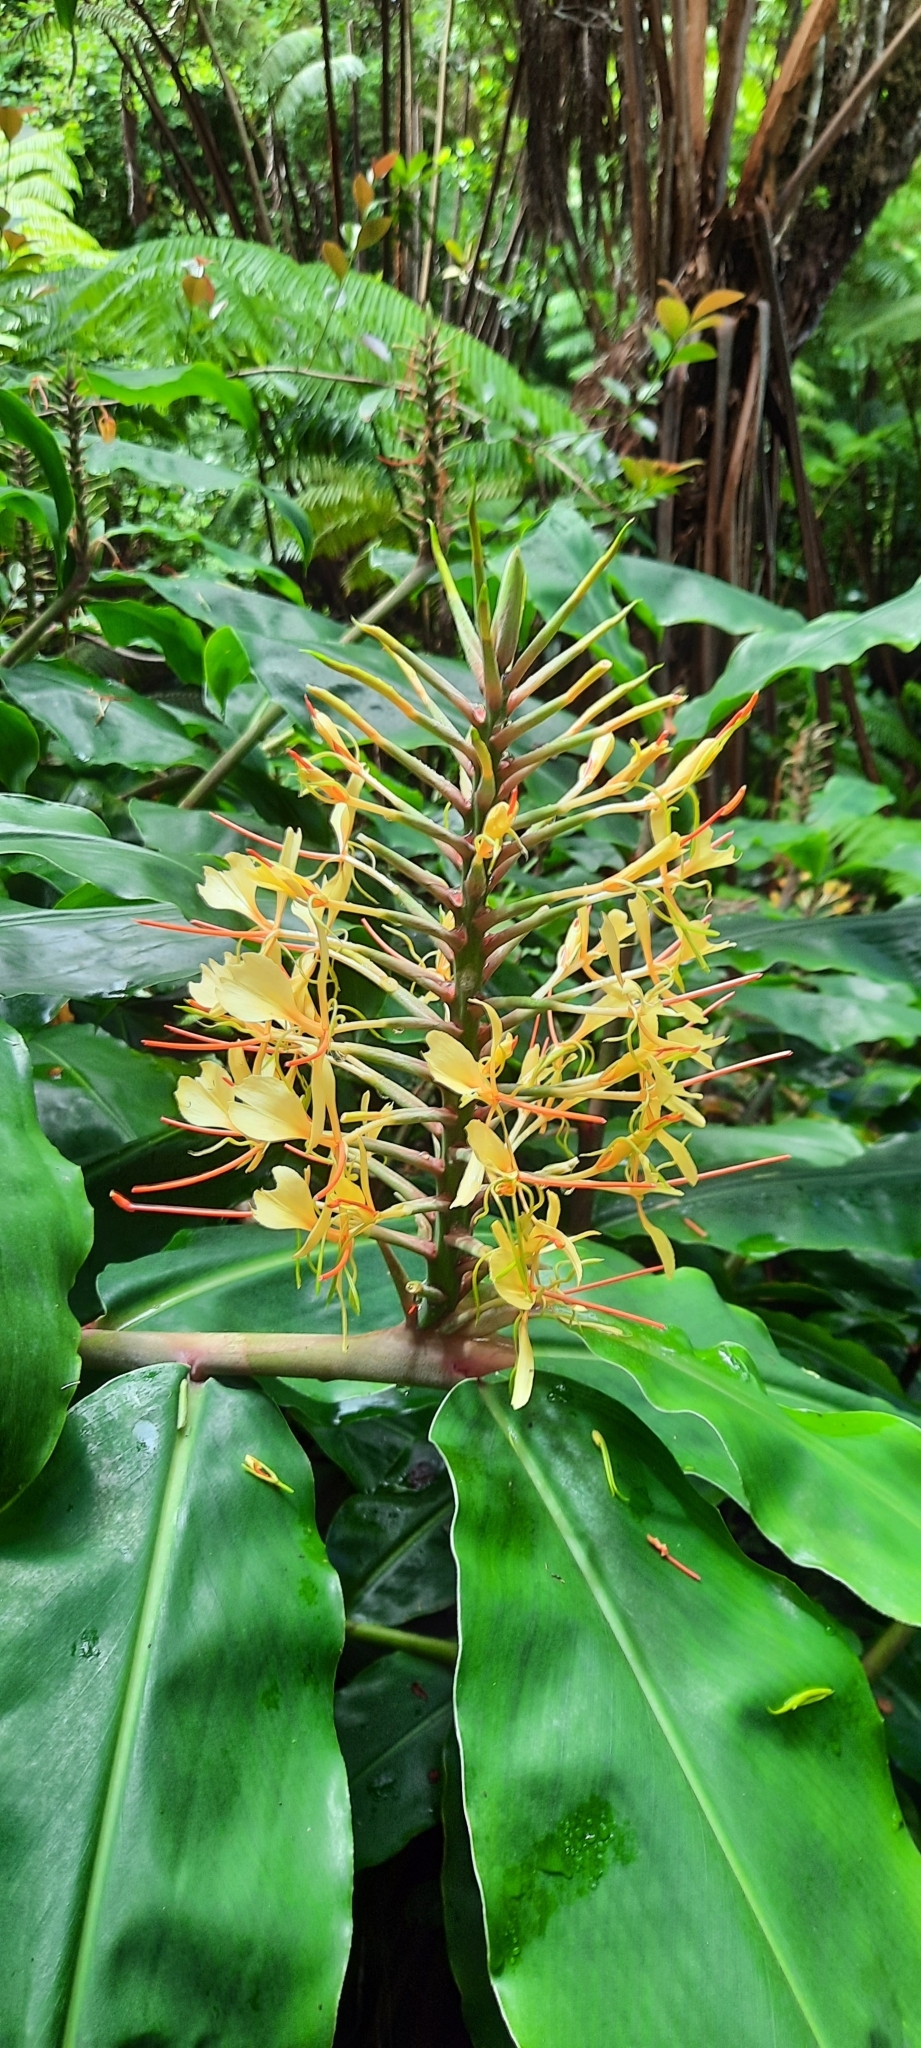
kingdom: Plantae
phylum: Tracheophyta
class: Liliopsida
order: Zingiberales
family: Zingiberaceae
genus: Hedychium
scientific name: Hedychium gardnerianum
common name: Himalayan ginger
